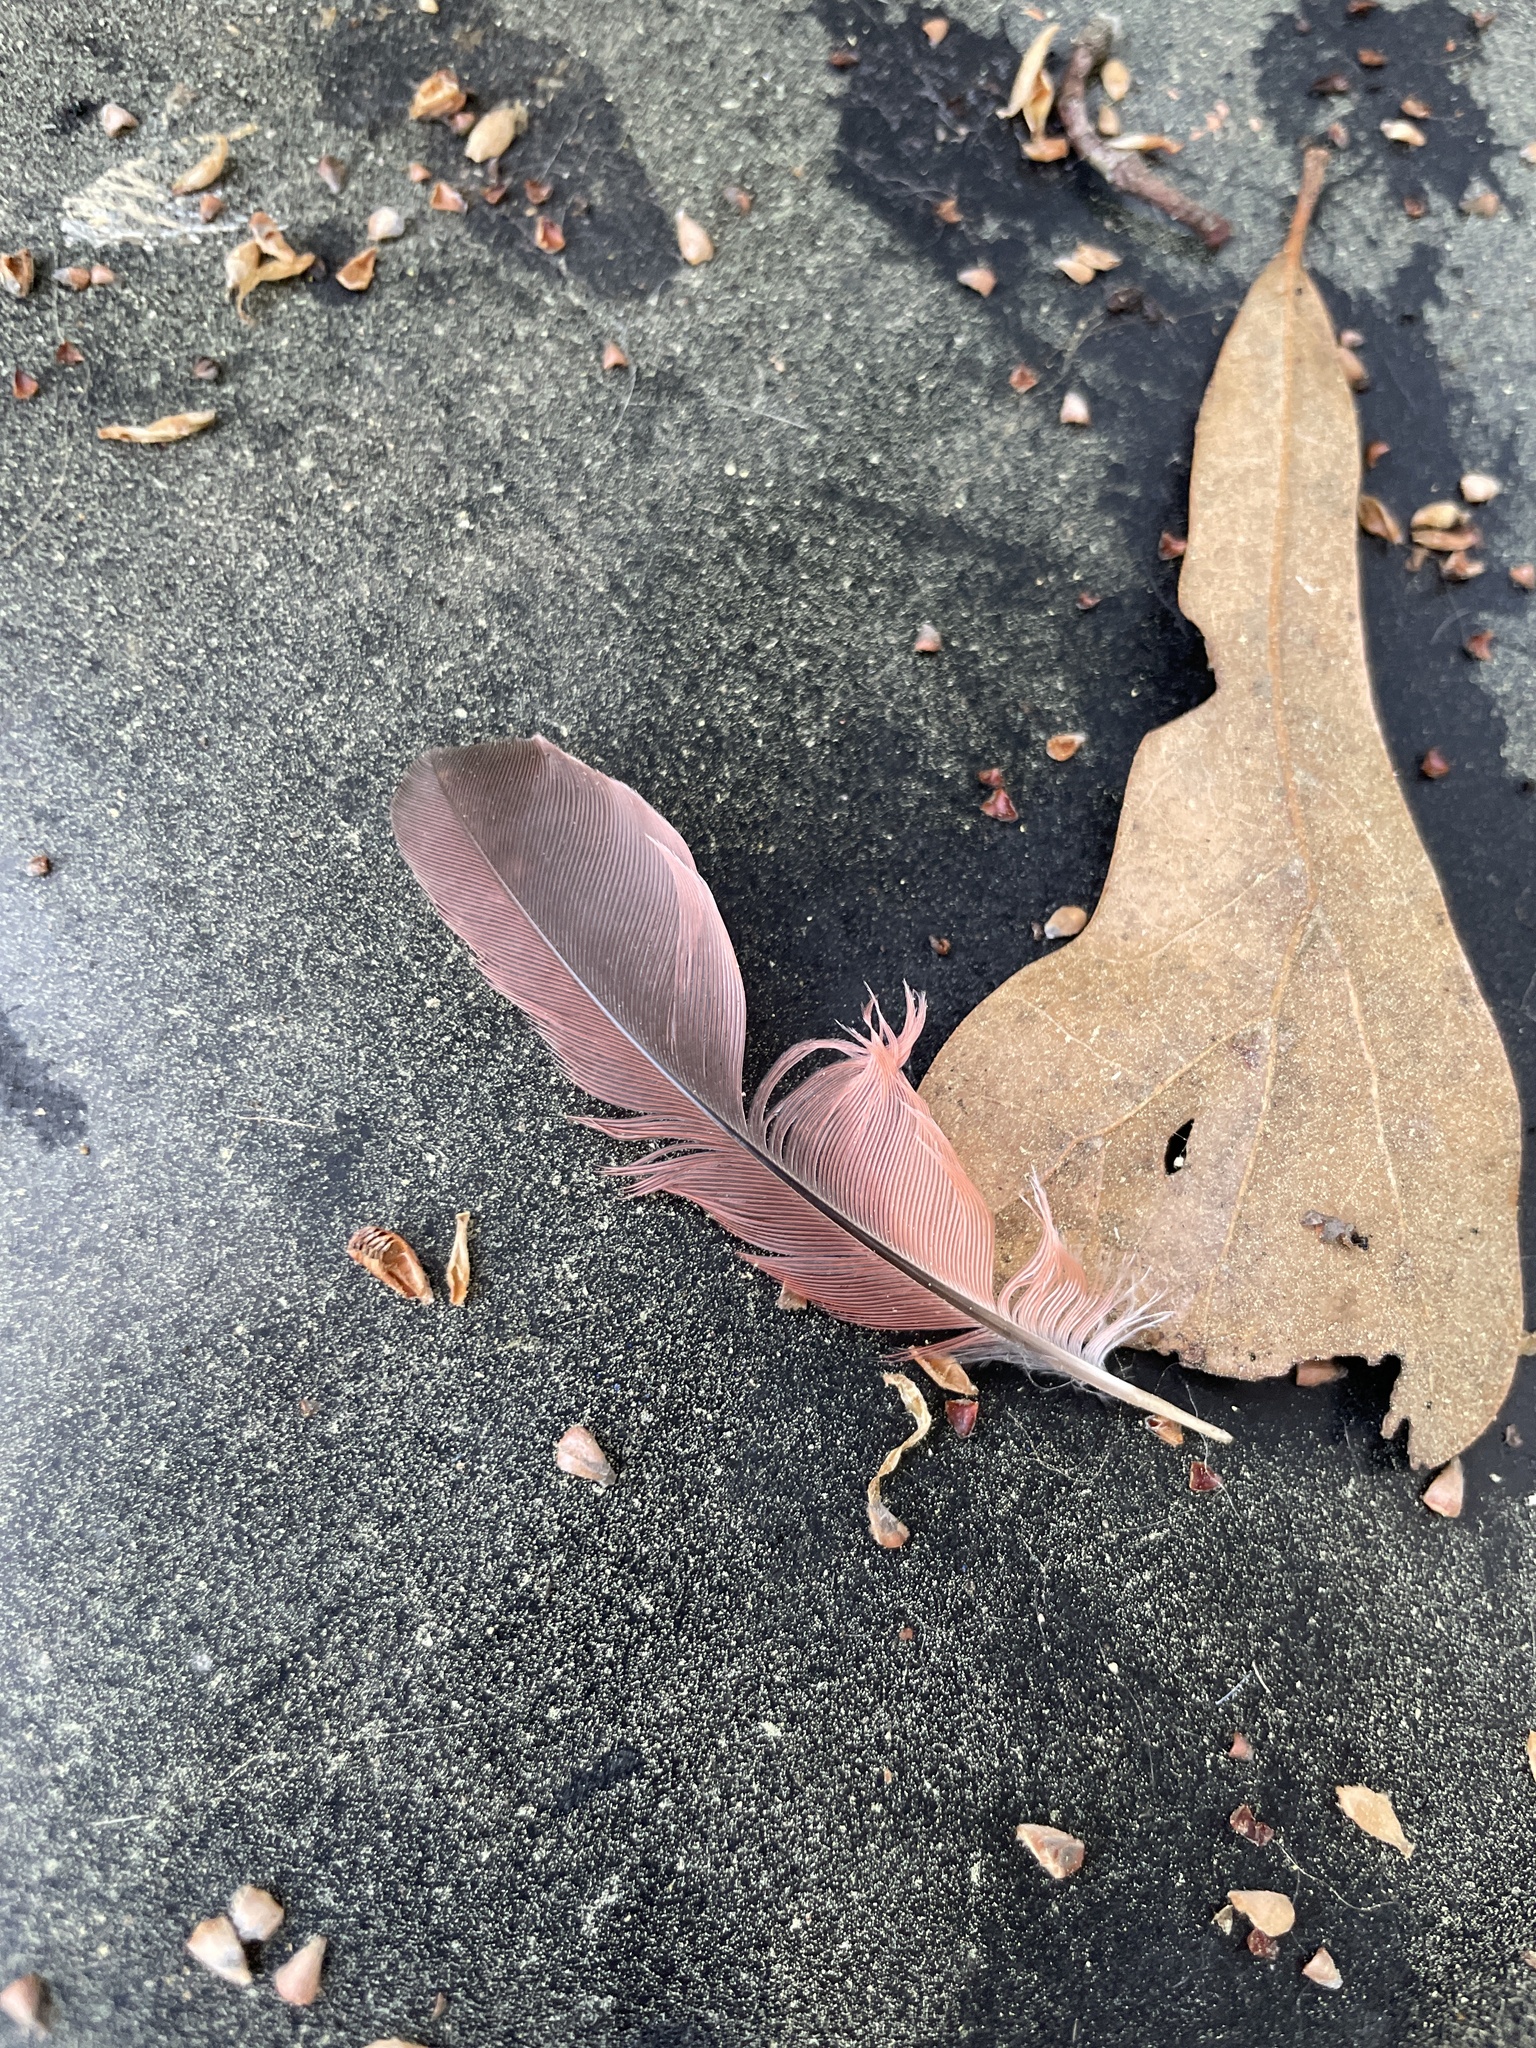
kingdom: Animalia
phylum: Chordata
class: Aves
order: Passeriformes
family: Cardinalidae
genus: Cardinalis
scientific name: Cardinalis cardinalis
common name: Northern cardinal
